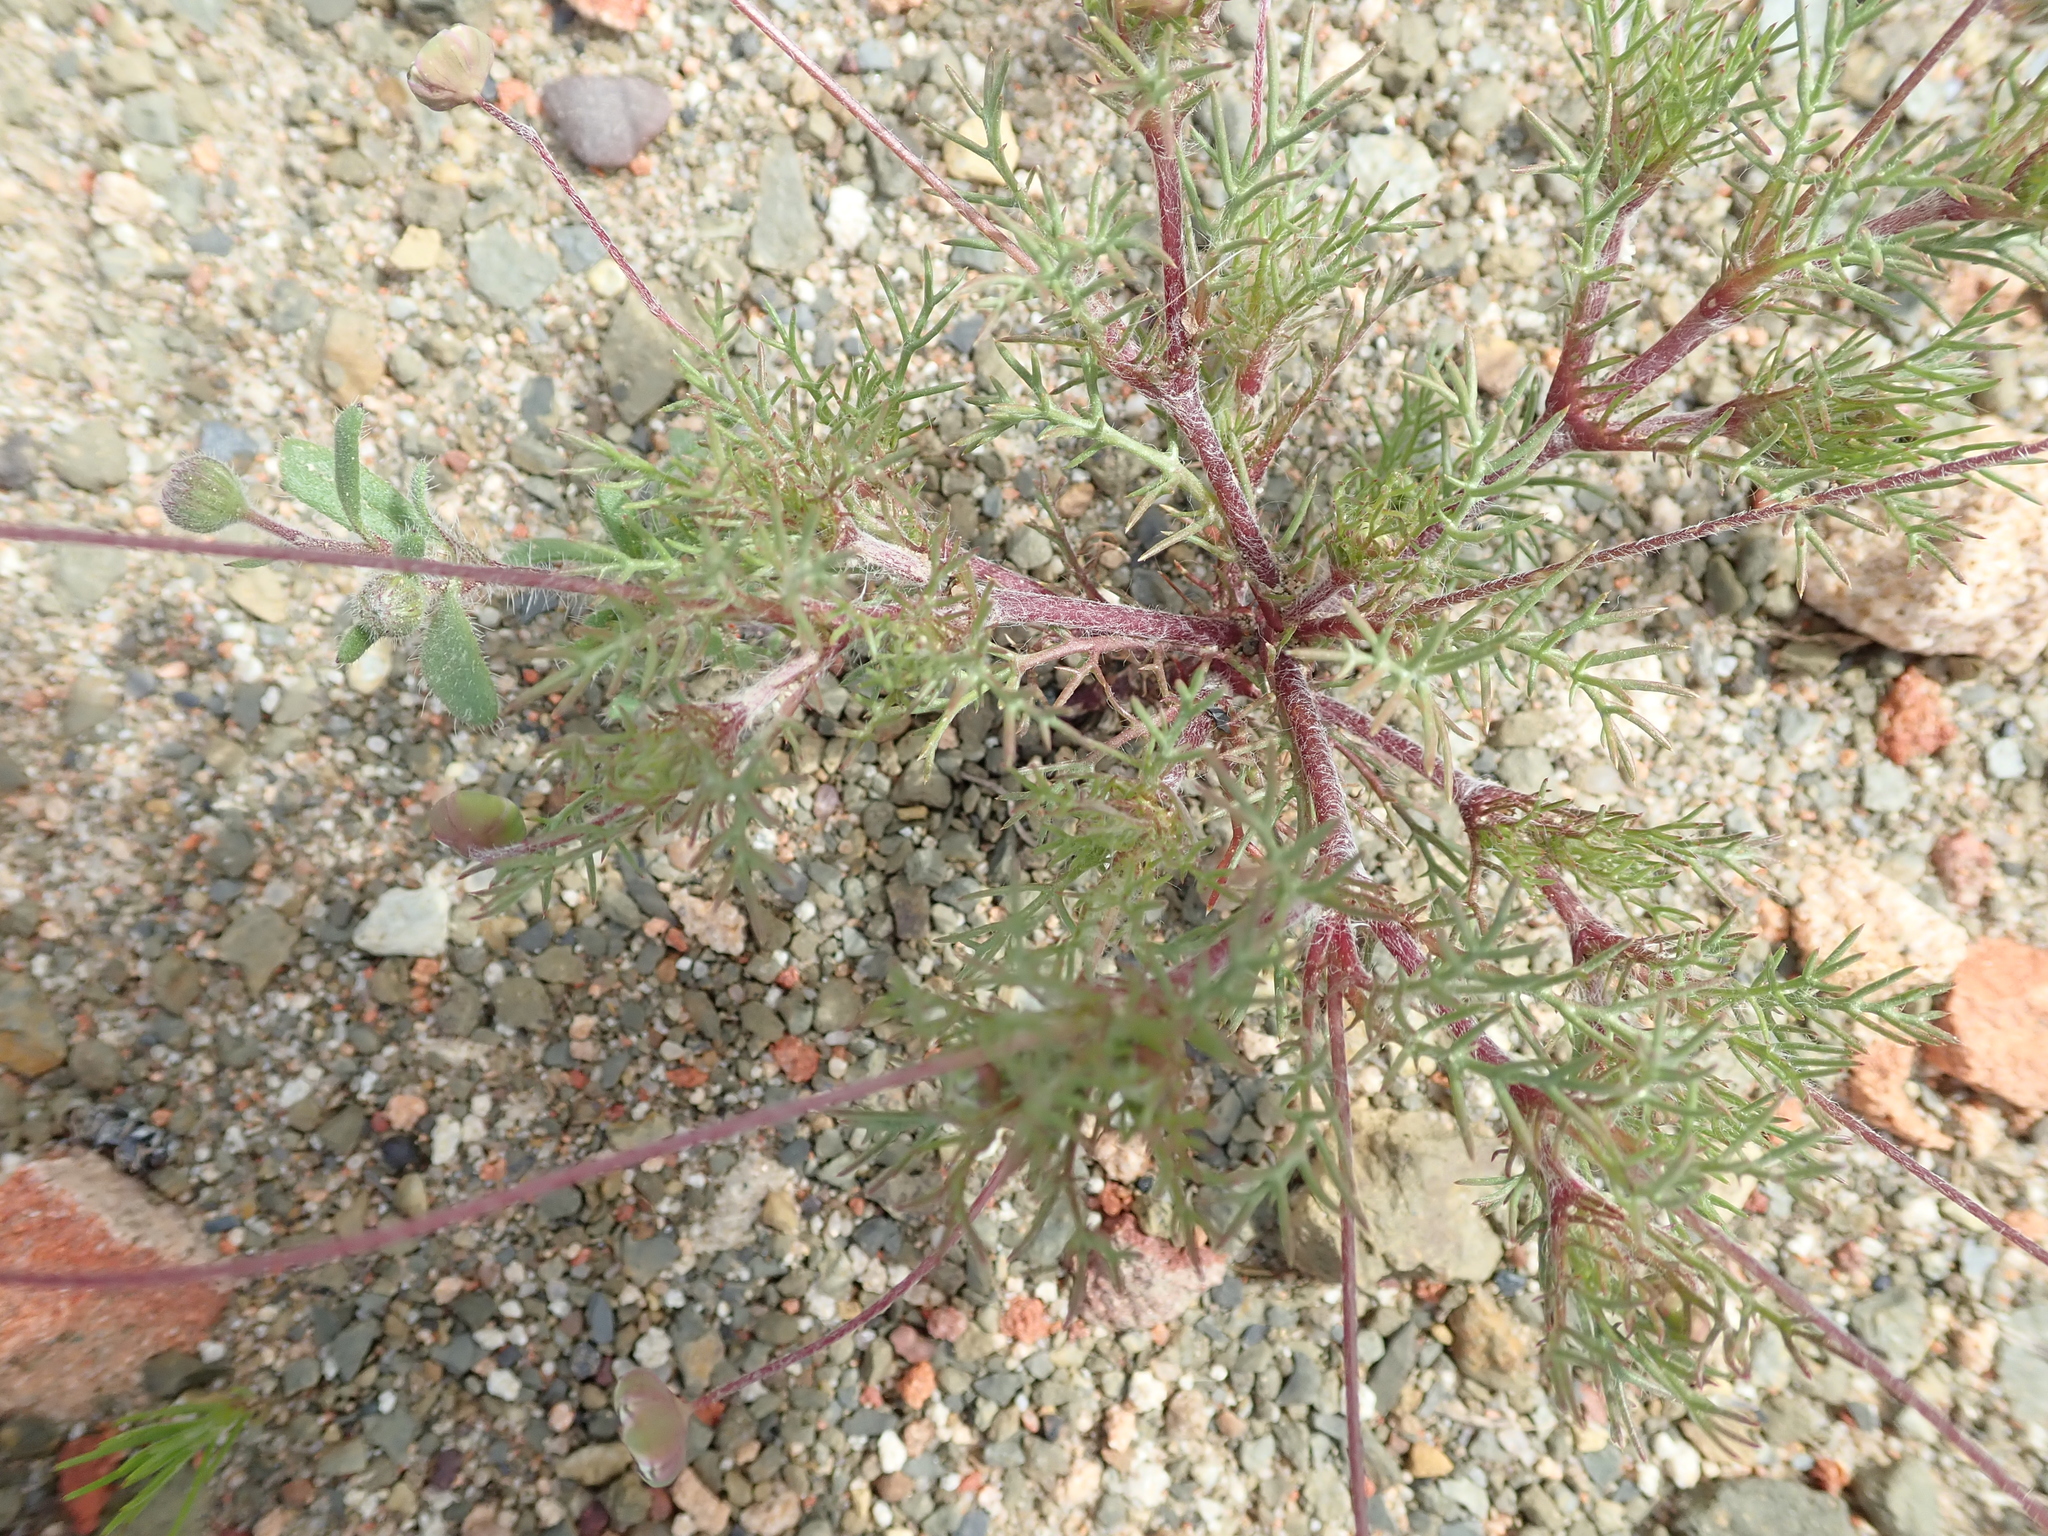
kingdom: Plantae
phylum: Tracheophyta
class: Magnoliopsida
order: Asterales
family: Asteraceae
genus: Cotula
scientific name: Cotula nudicaulis
